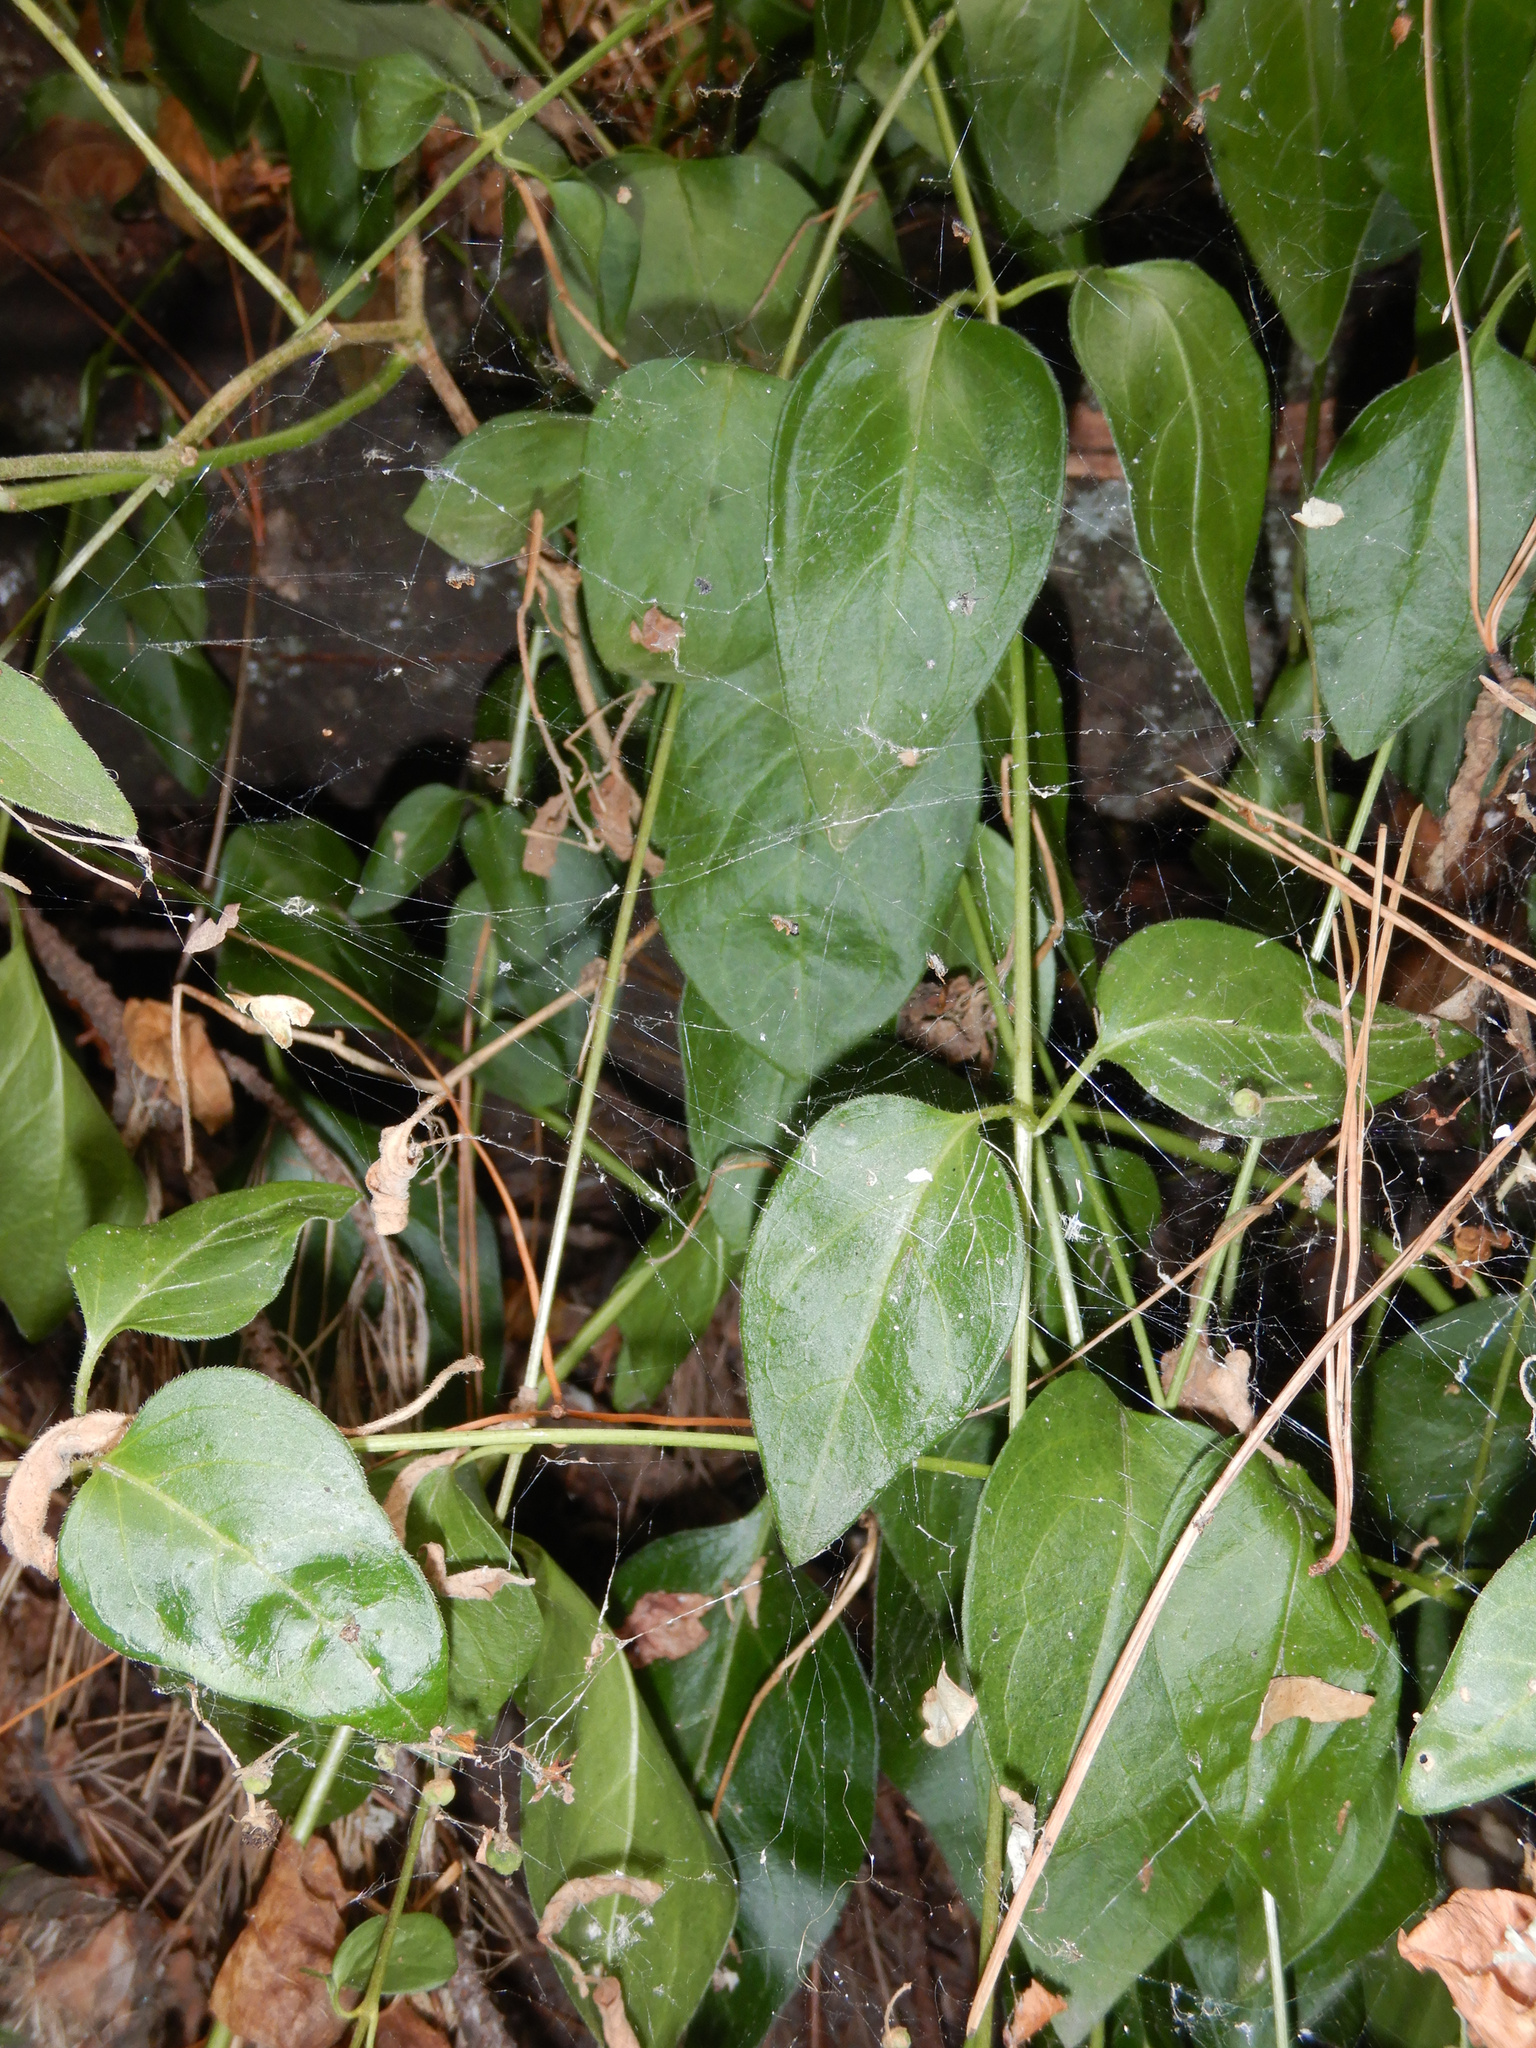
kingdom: Animalia
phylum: Arthropoda
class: Arachnida
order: Araneae
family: Uloboridae
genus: Philoponella
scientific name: Philoponella congregabilis
